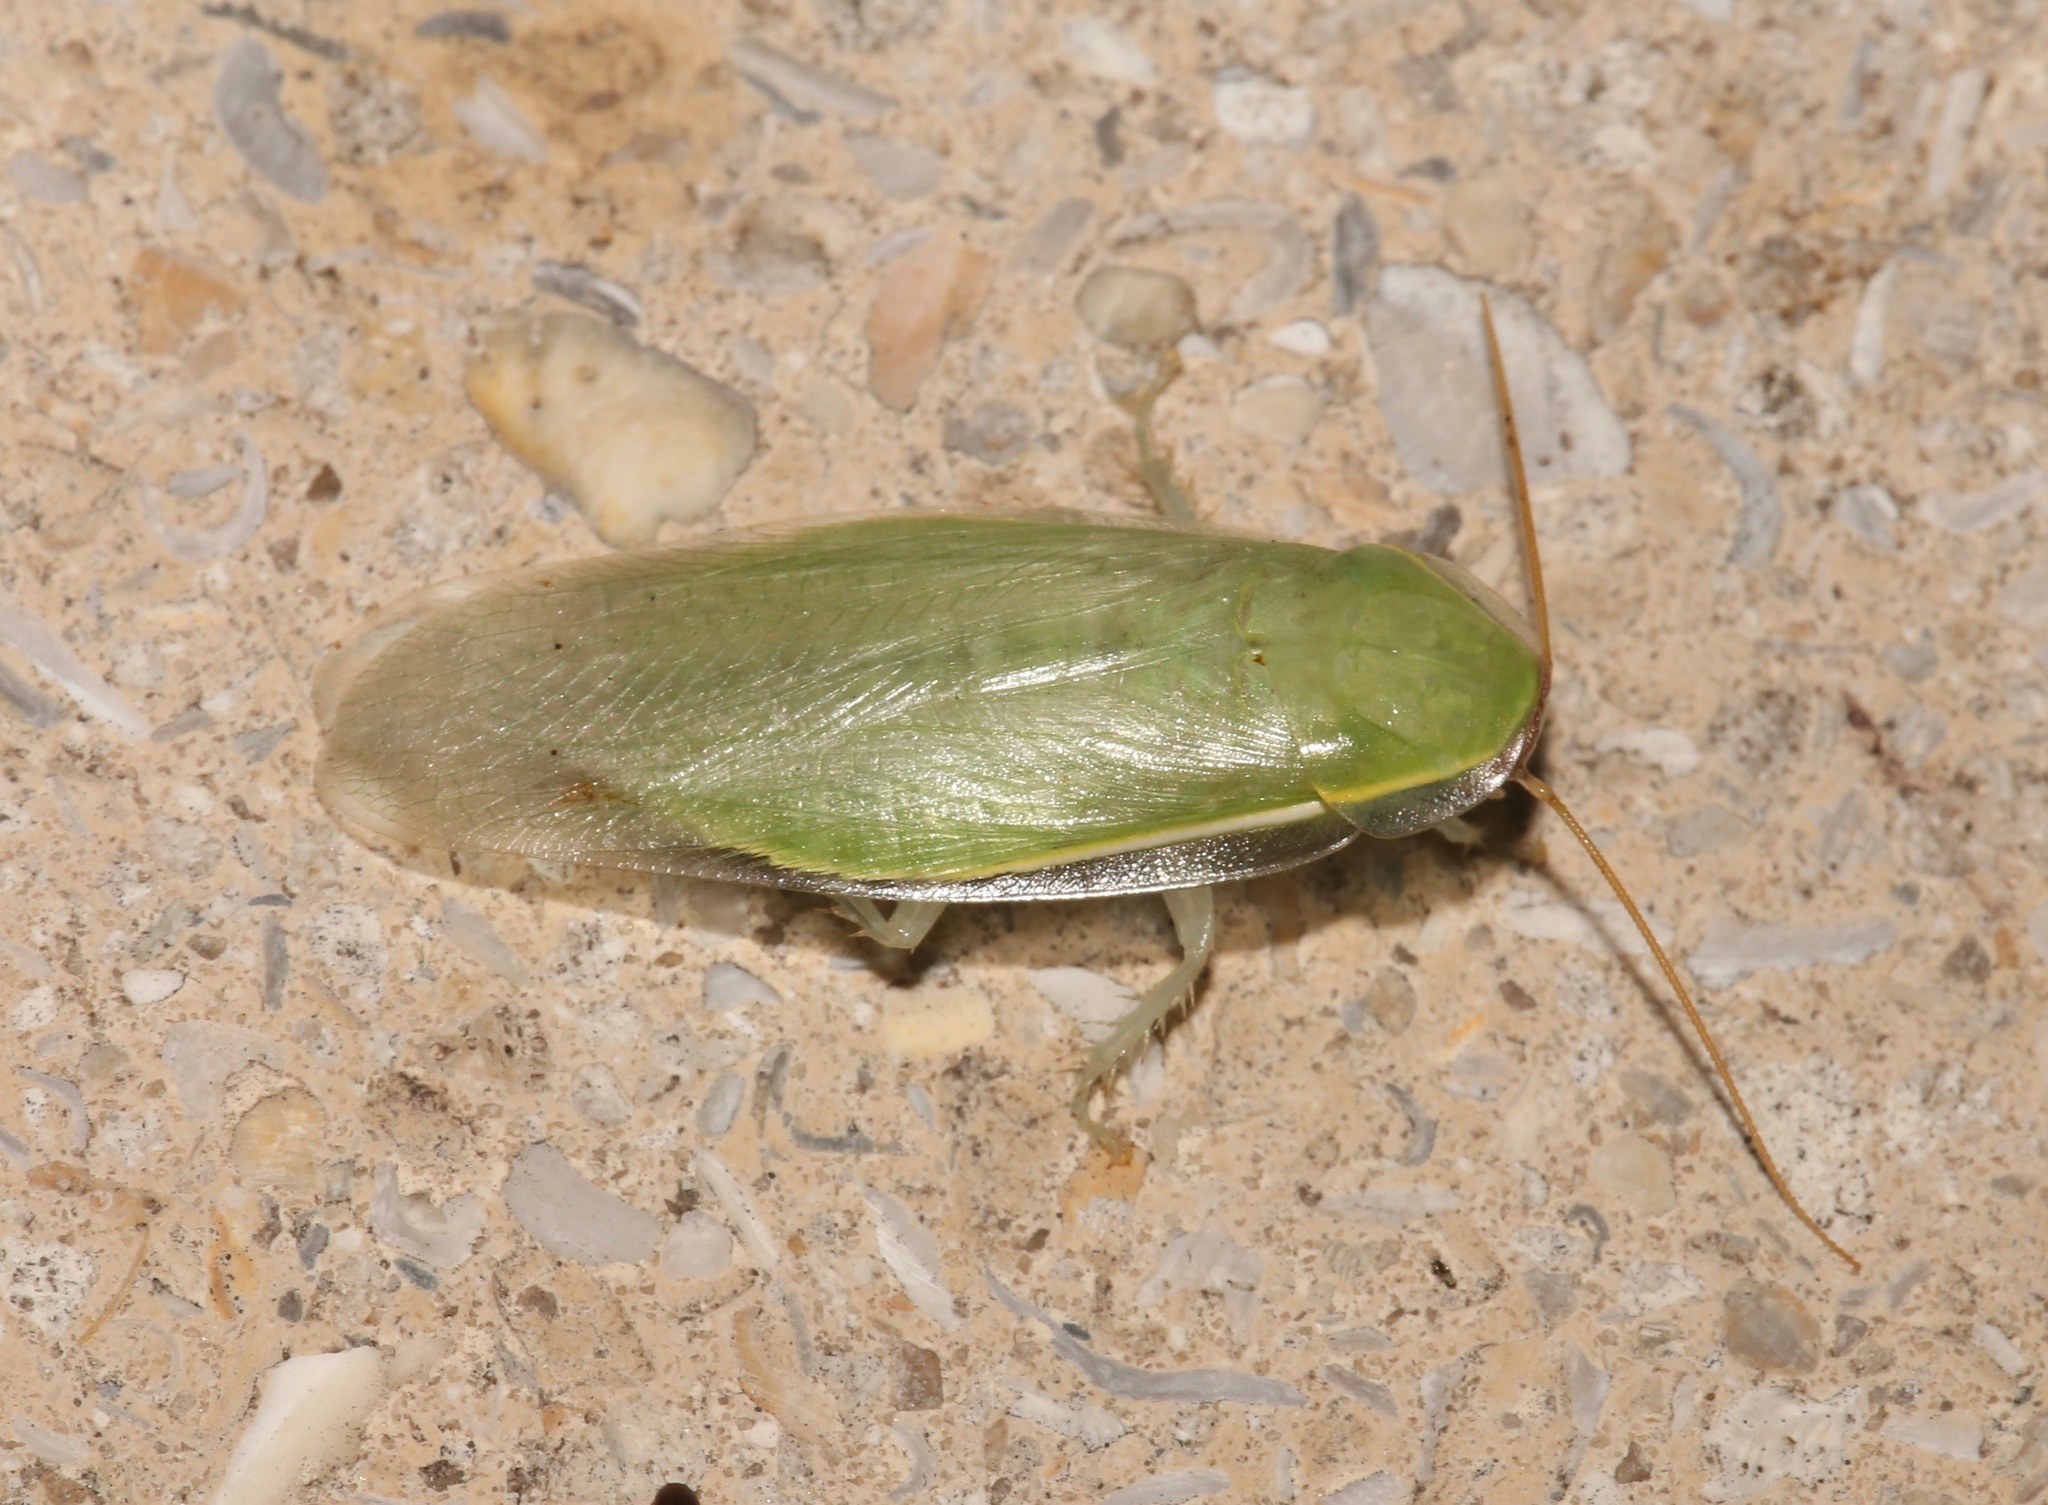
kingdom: Animalia
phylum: Arthropoda
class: Insecta
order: Blattodea
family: Blaberidae
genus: Panchlora
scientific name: Panchlora nivea
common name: Cuban cockroach
